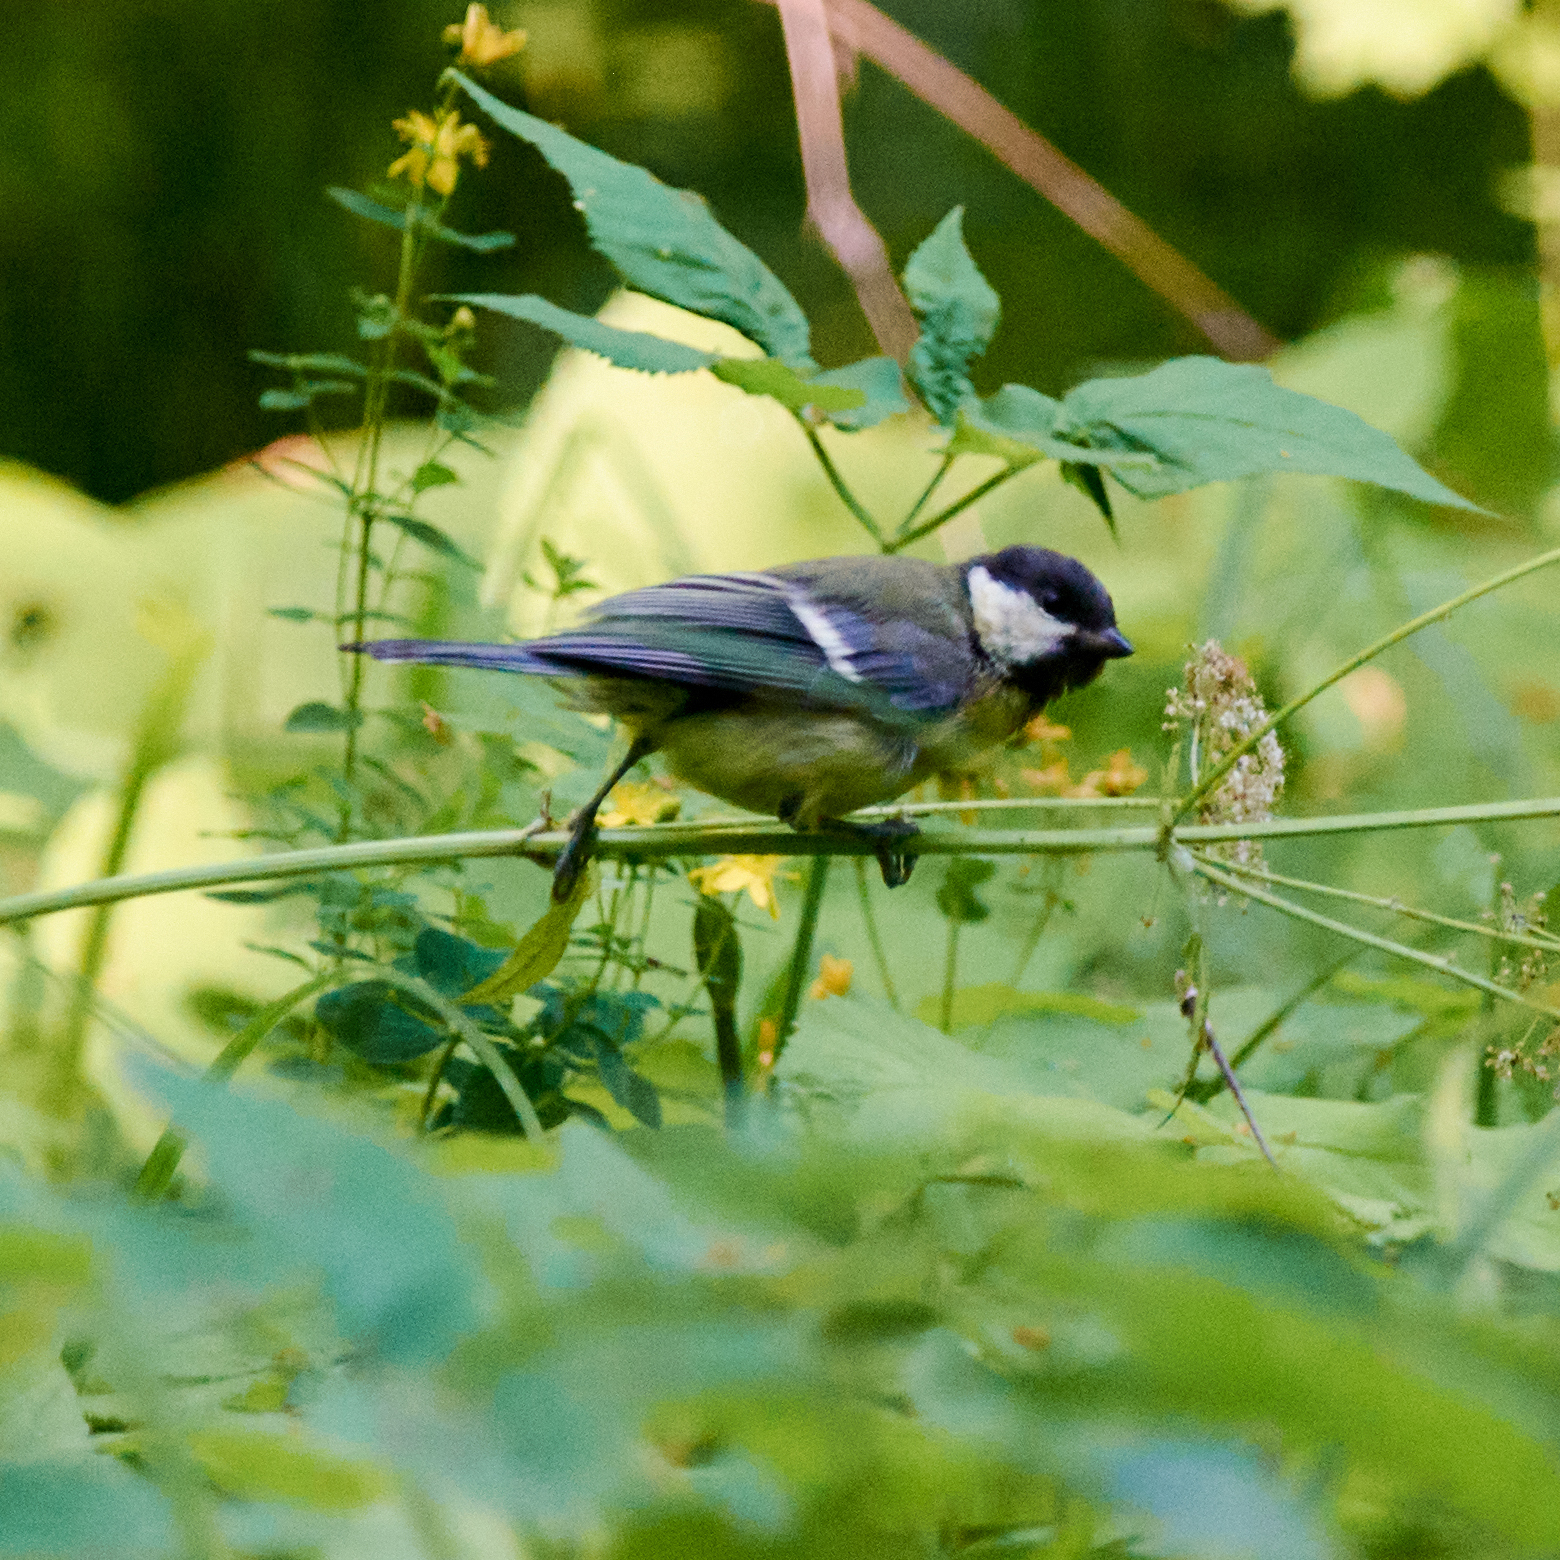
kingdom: Animalia
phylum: Chordata
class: Aves
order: Passeriformes
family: Paridae
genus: Parus
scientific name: Parus major
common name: Great tit
